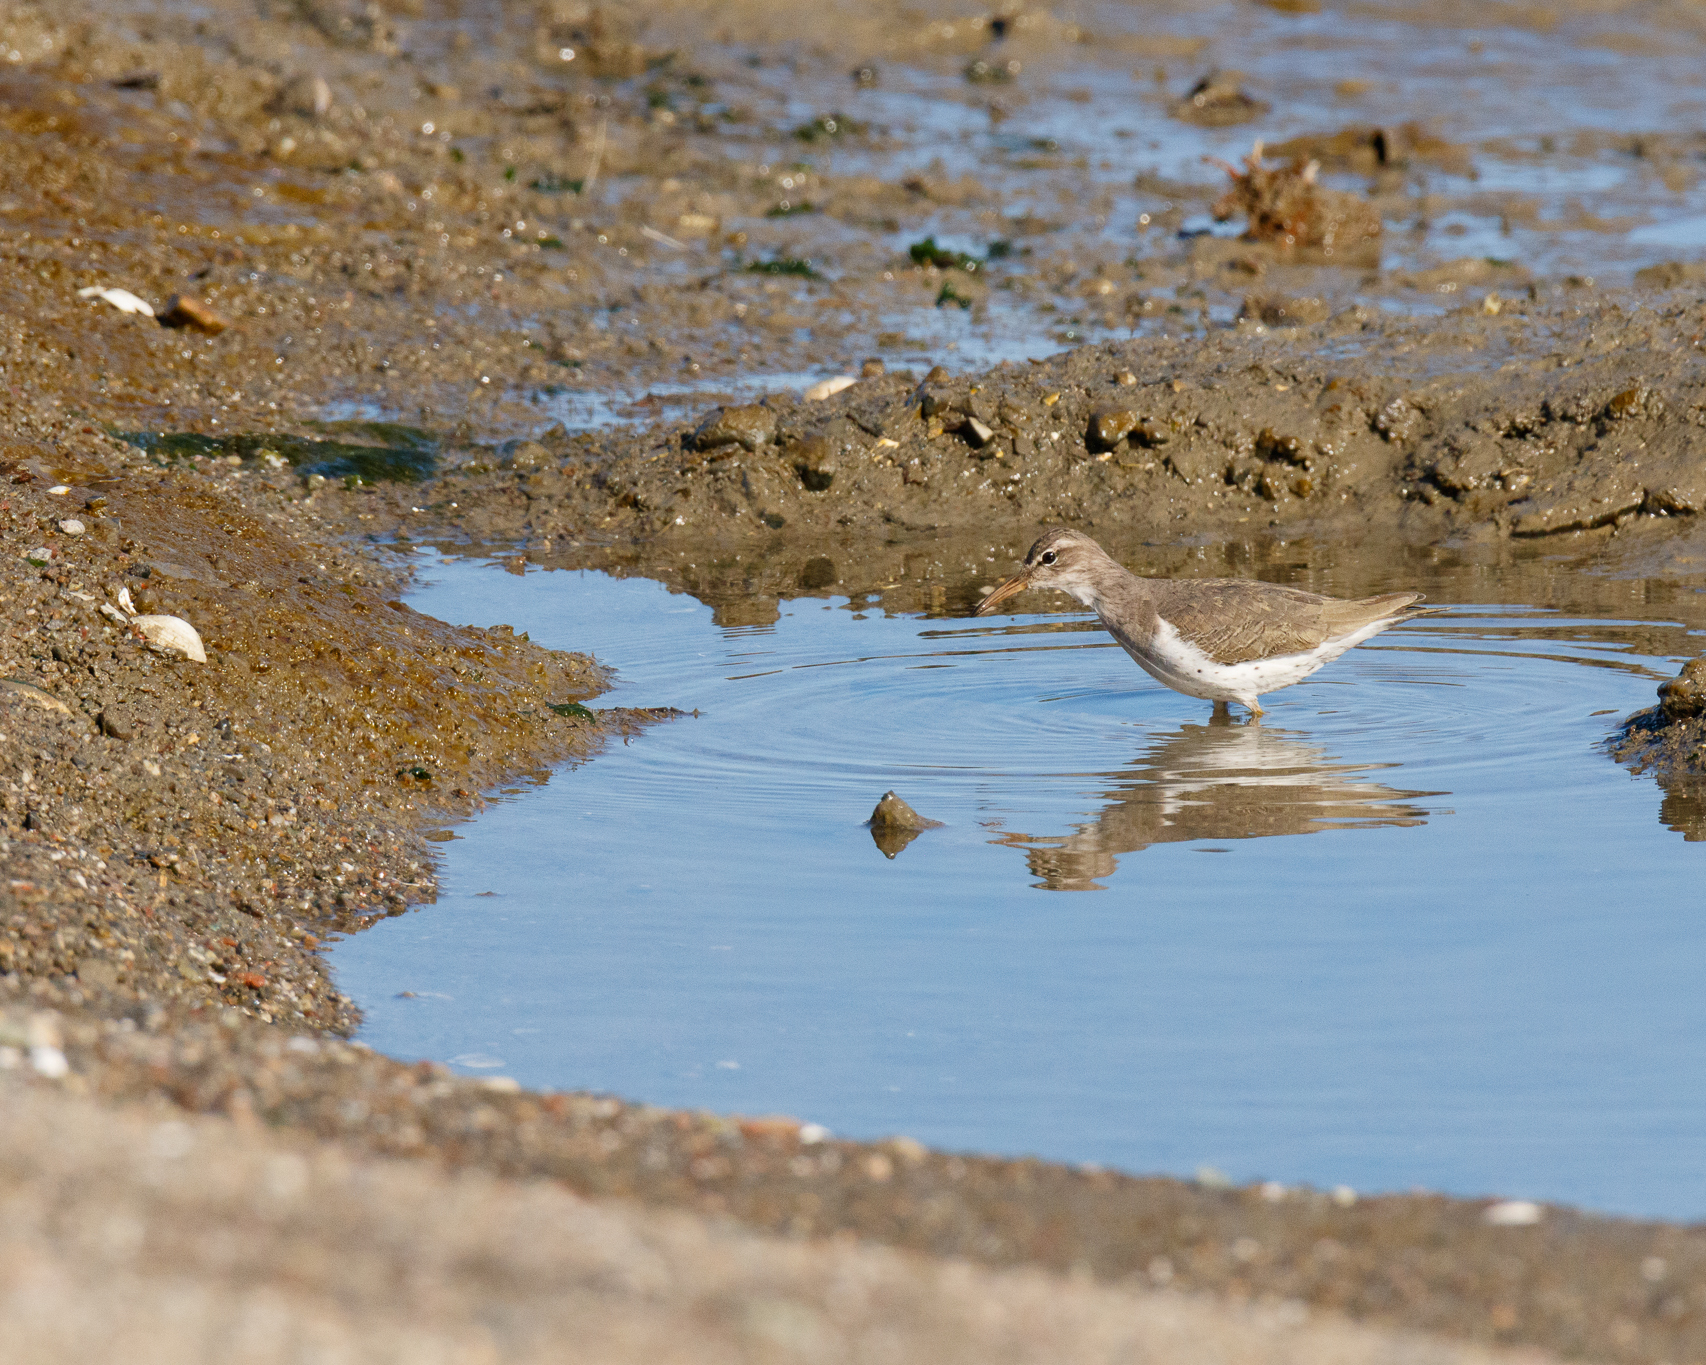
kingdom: Animalia
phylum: Chordata
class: Aves
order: Charadriiformes
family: Scolopacidae
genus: Actitis
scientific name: Actitis macularius
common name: Spotted sandpiper
